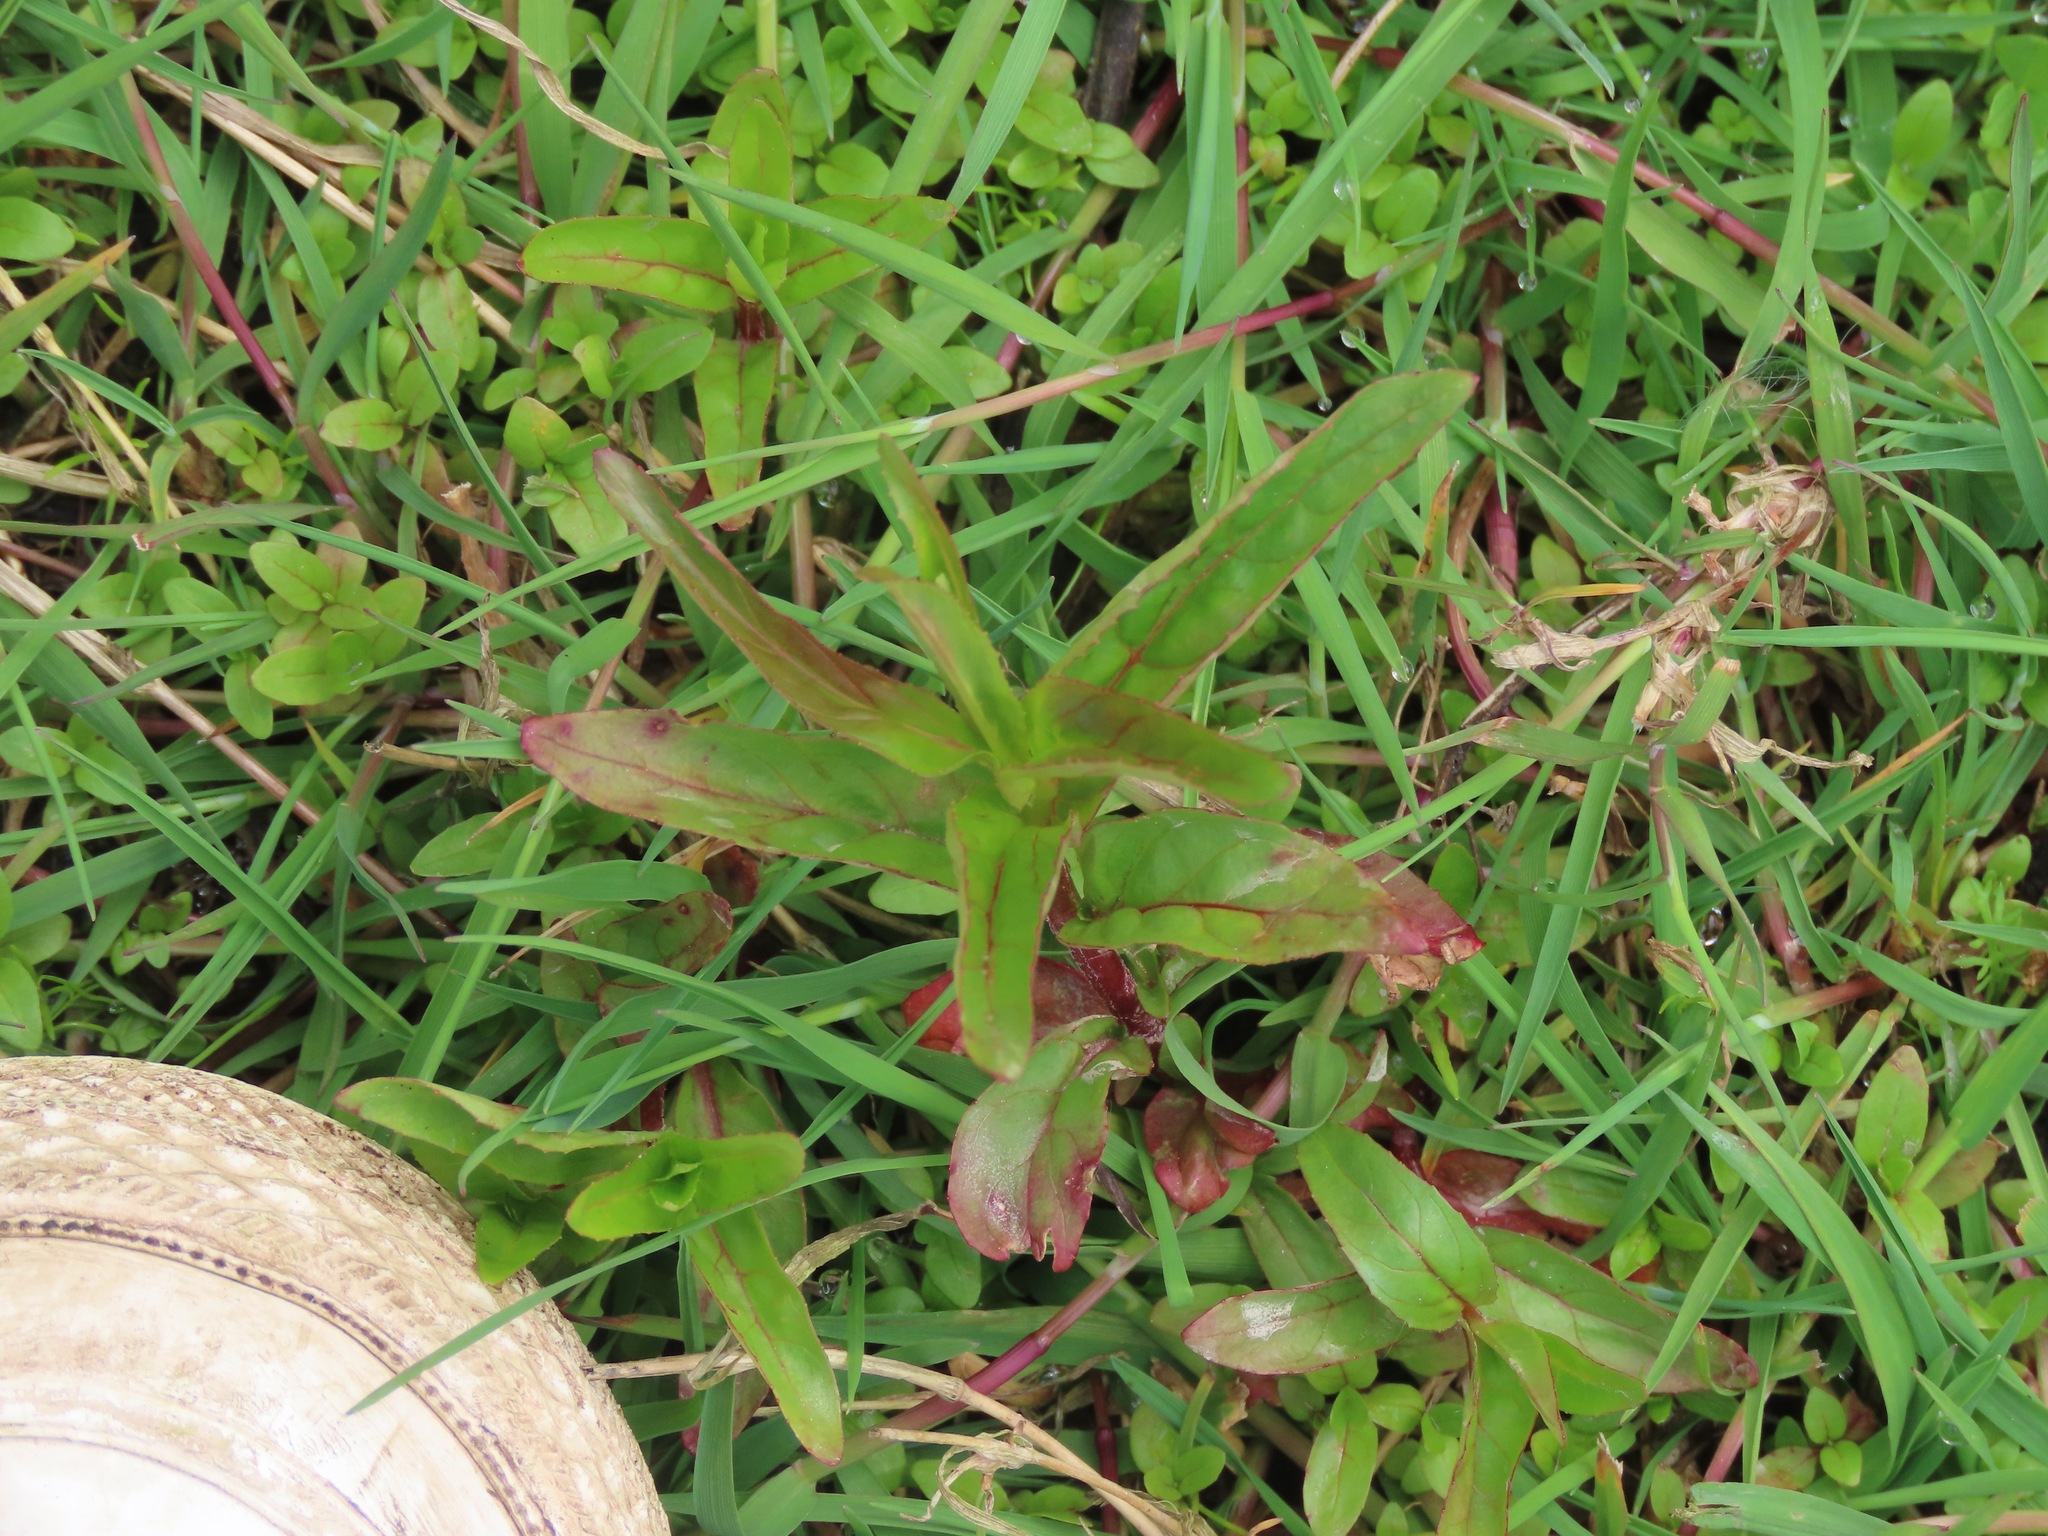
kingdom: Plantae
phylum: Tracheophyta
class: Magnoliopsida
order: Myrtales
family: Onagraceae
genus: Epilobium
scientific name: Epilobium ciliatum
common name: American willowherb
